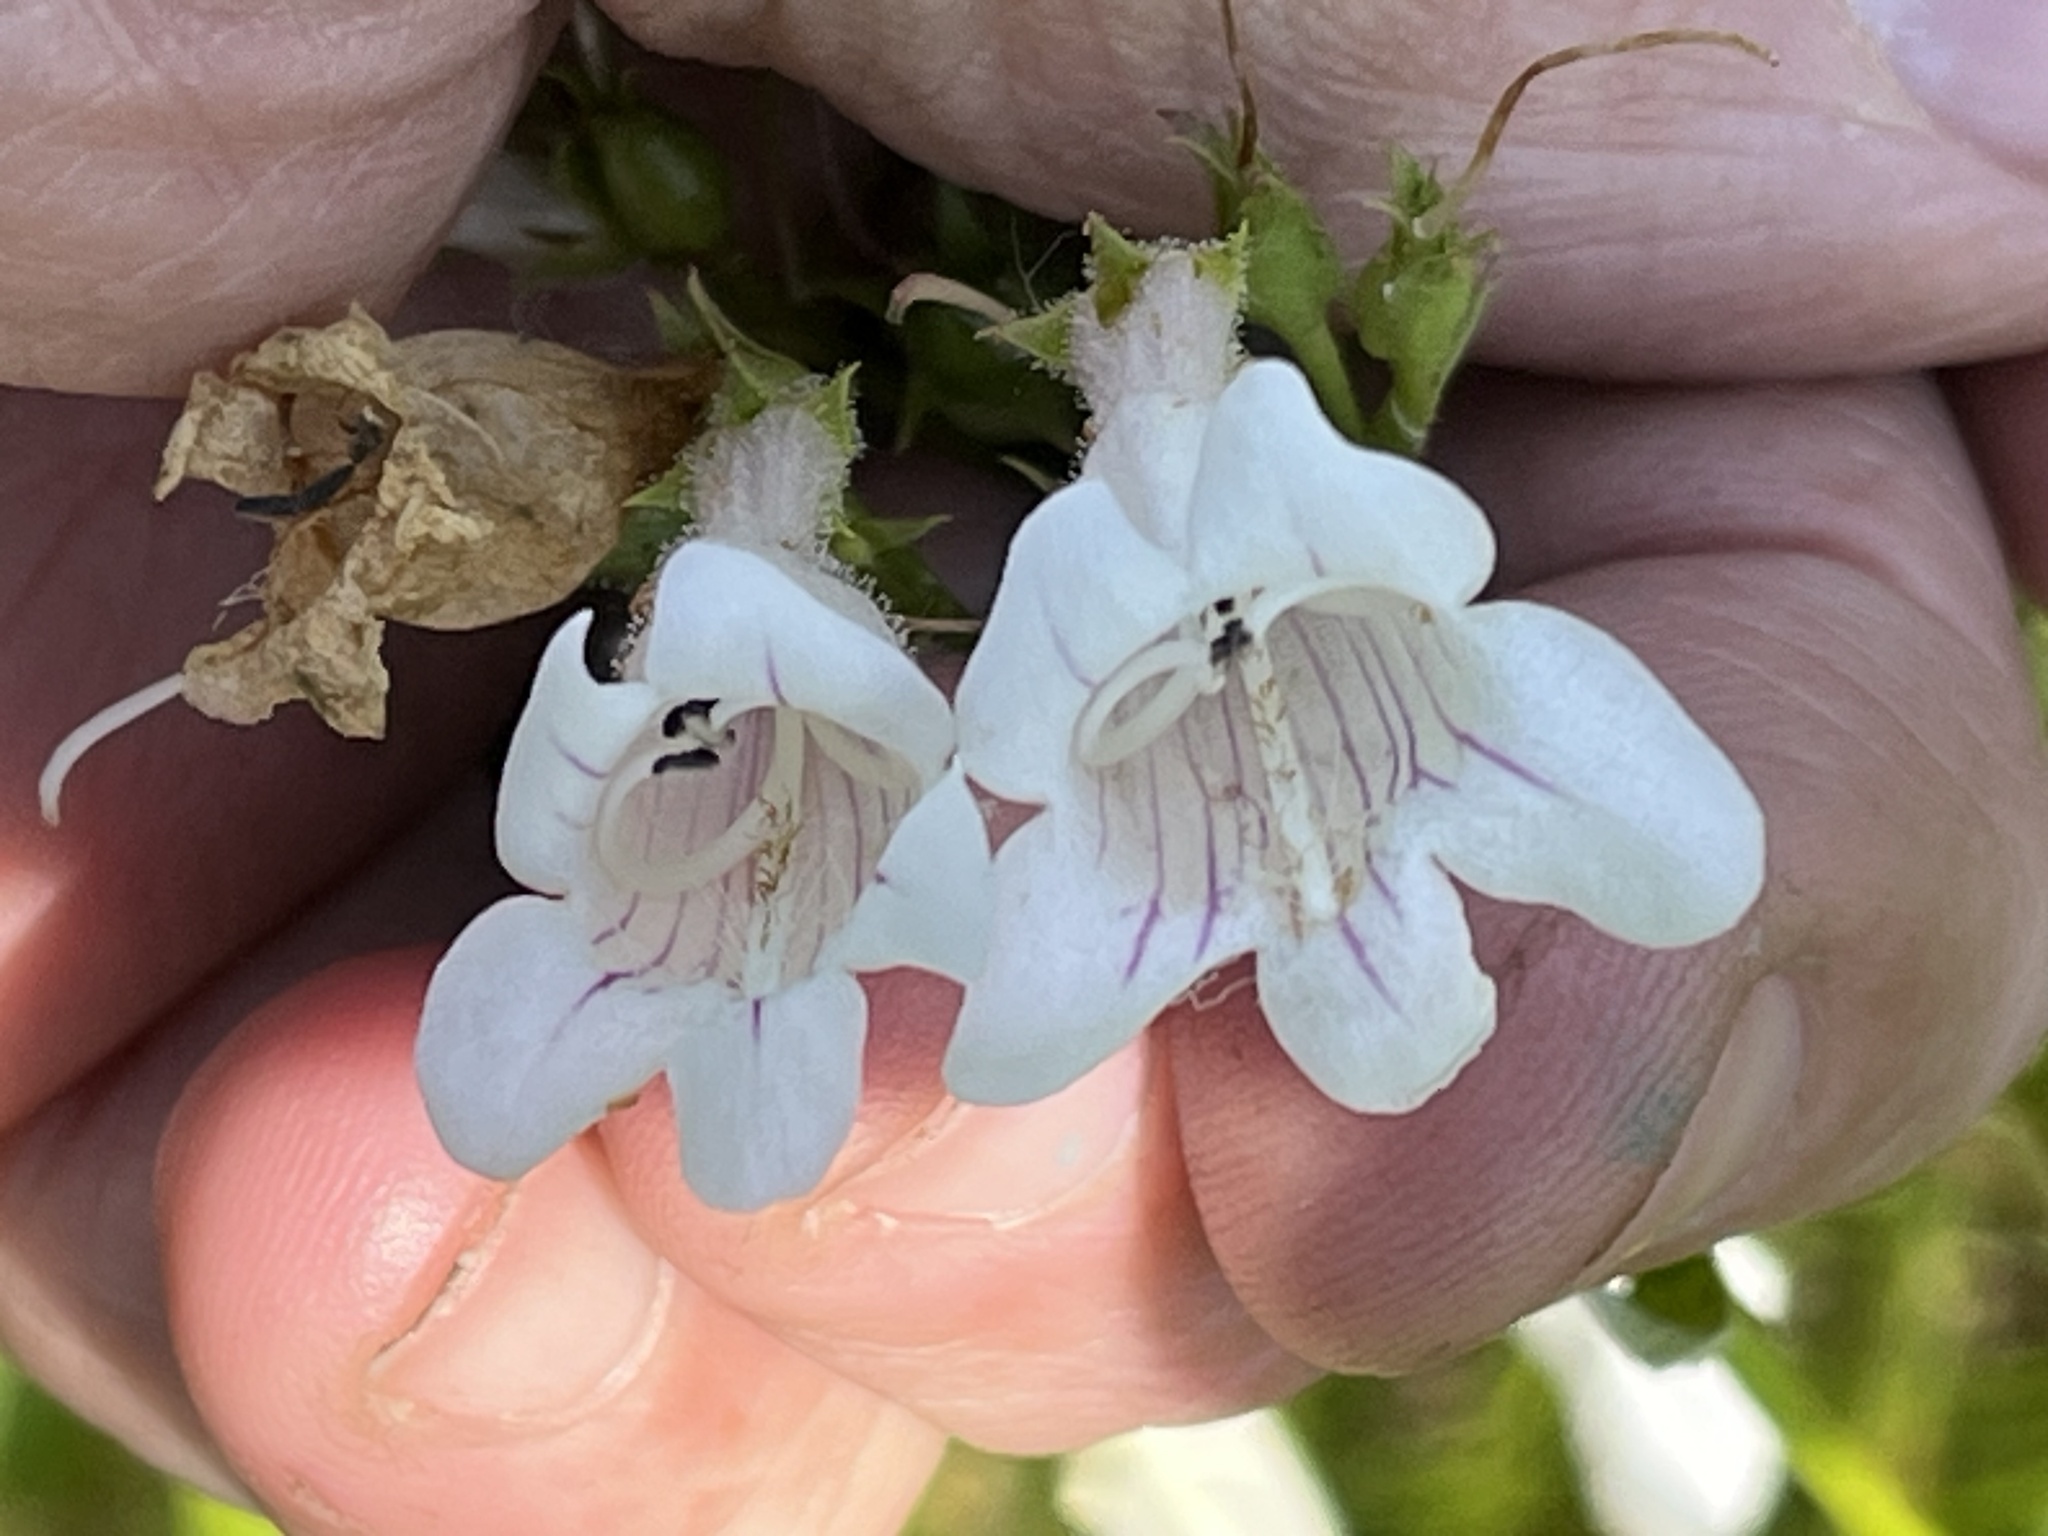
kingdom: Plantae
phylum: Tracheophyta
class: Magnoliopsida
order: Lamiales
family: Plantaginaceae
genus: Penstemon
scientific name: Penstemon digitalis
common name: Foxglove beardtongue
